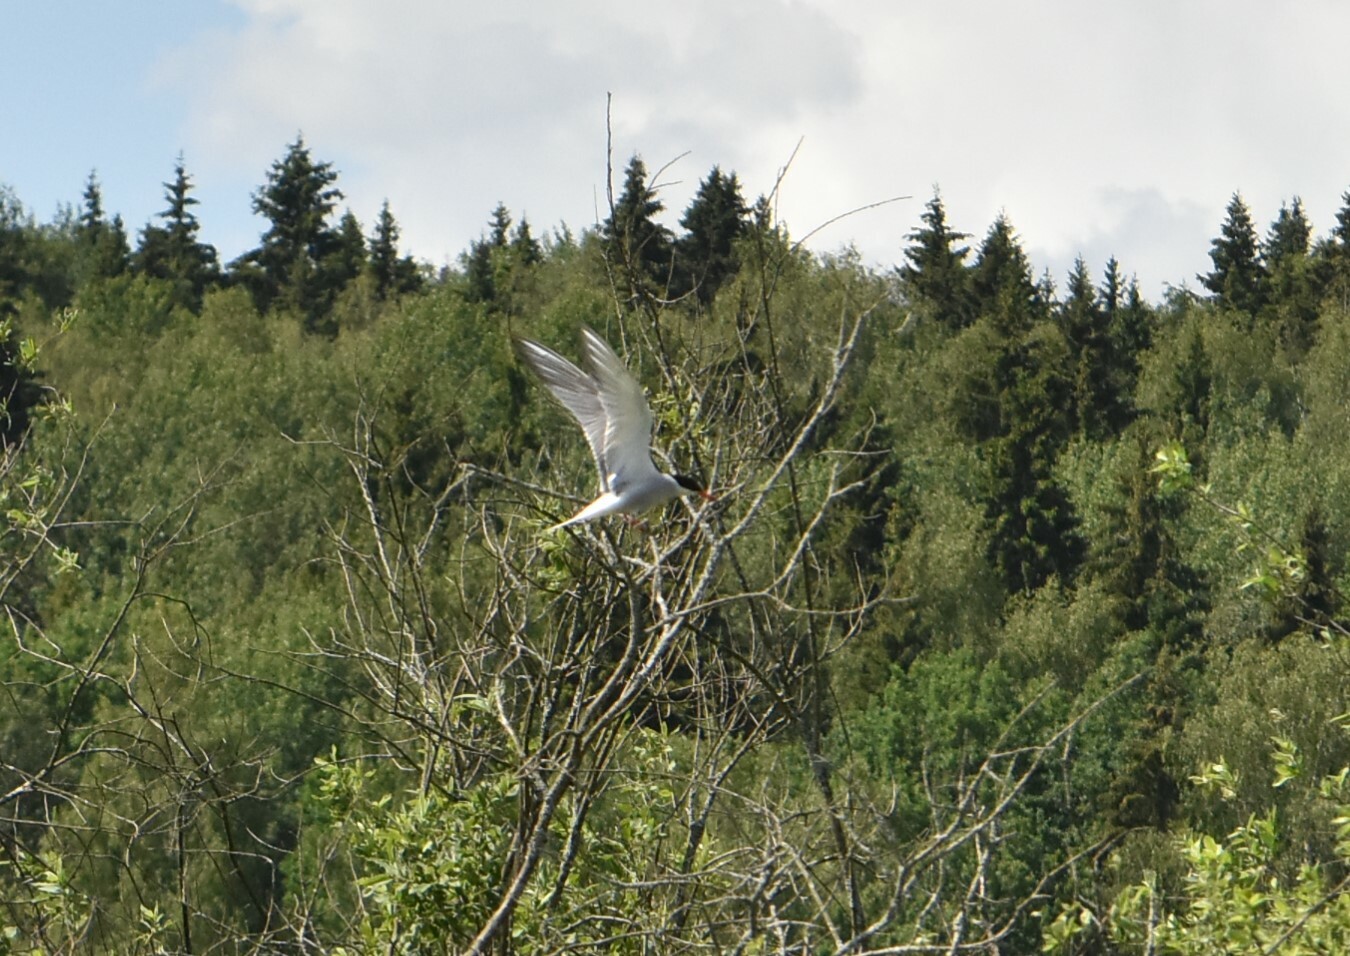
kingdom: Animalia
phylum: Chordata
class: Aves
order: Charadriiformes
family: Laridae
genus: Sterna
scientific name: Sterna hirundo
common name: Common tern
